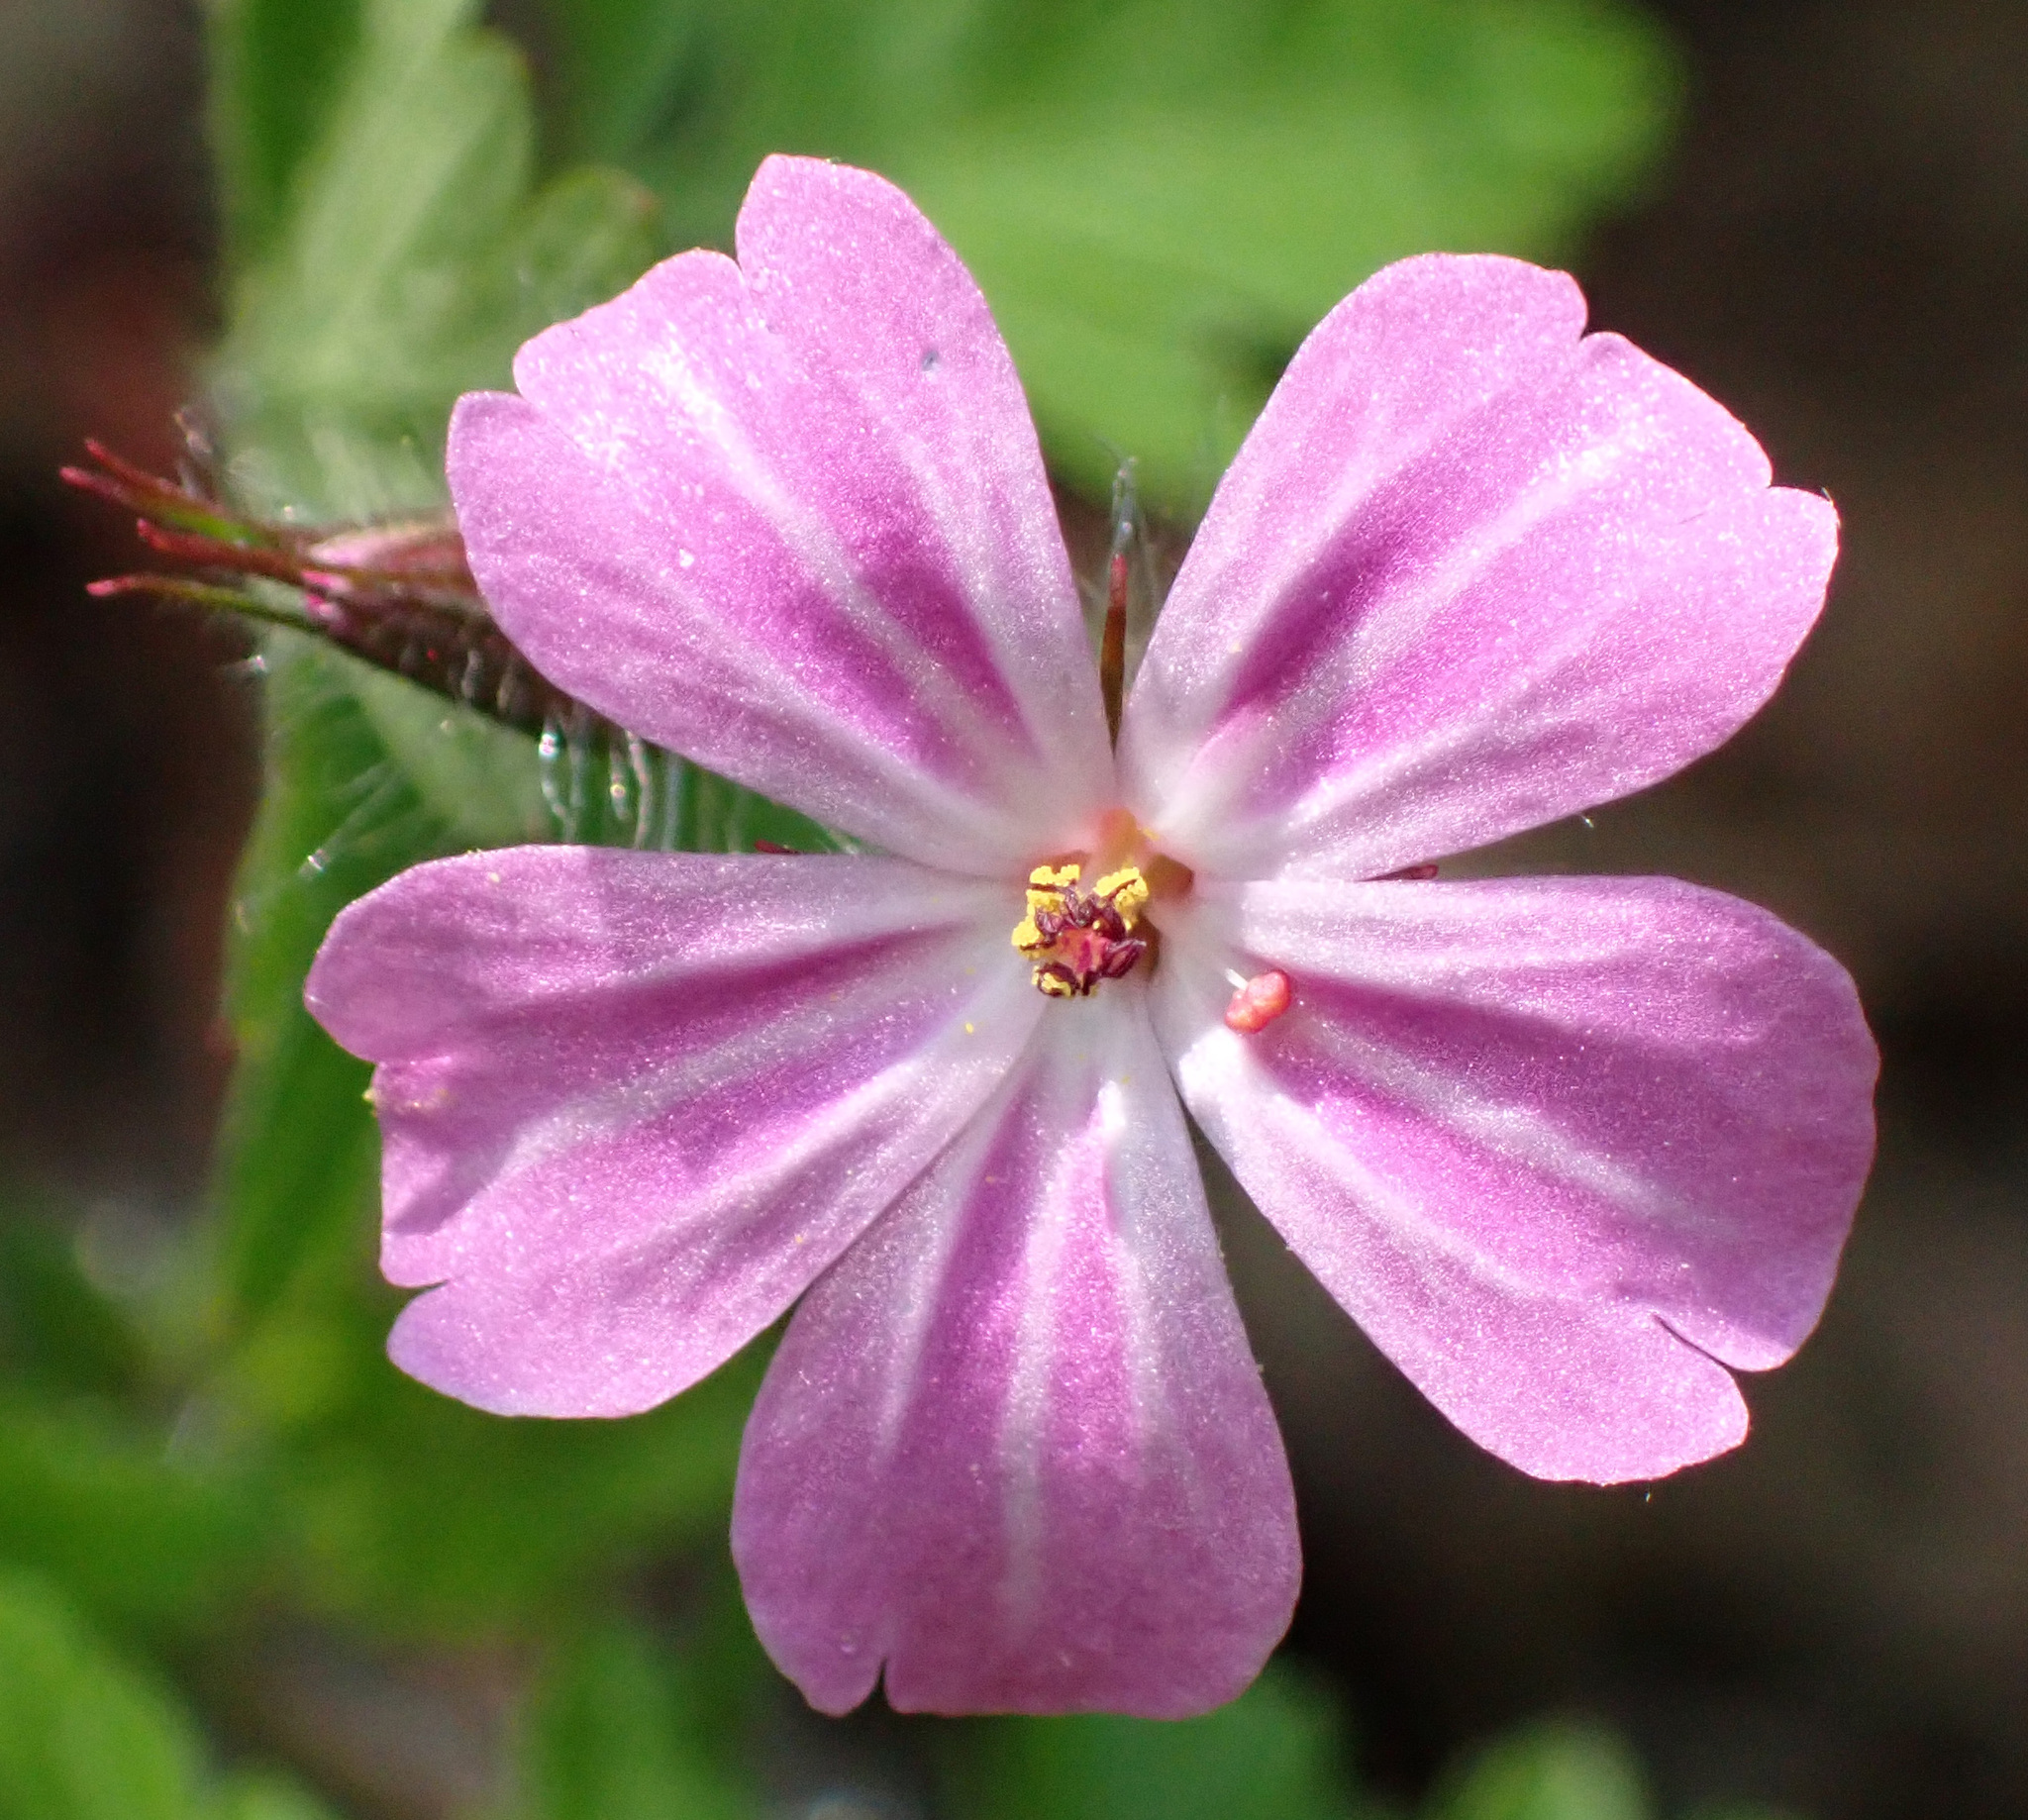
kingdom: Plantae
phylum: Tracheophyta
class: Magnoliopsida
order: Geraniales
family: Geraniaceae
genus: Geranium
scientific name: Geranium robertianum
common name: Herb-robert
